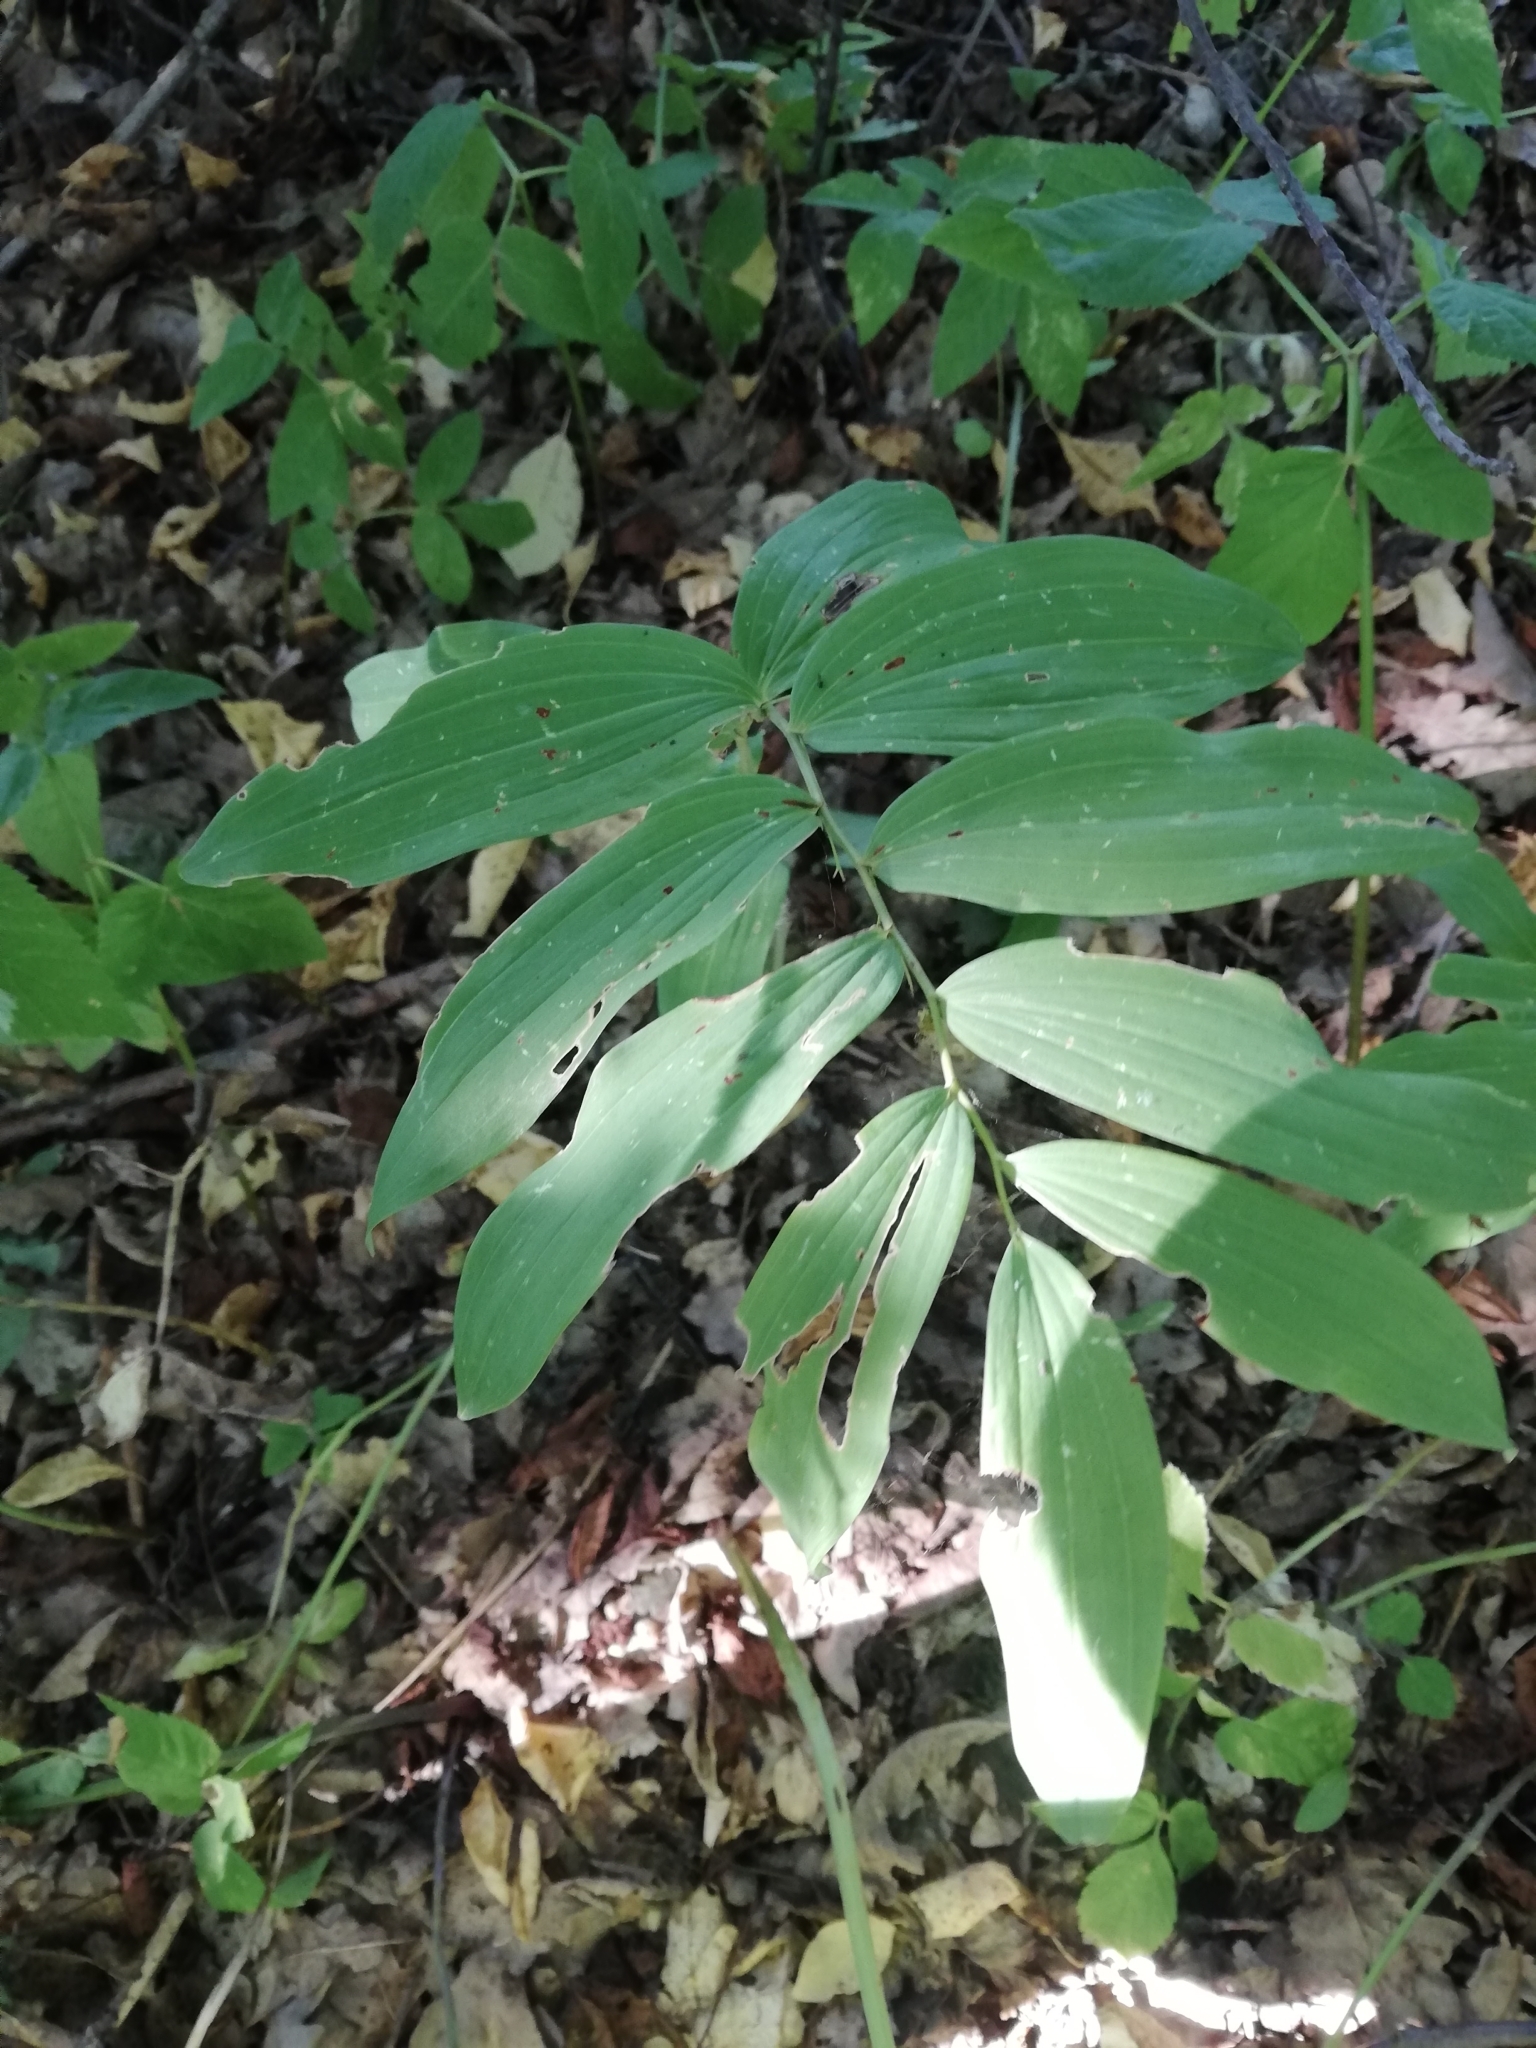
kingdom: Plantae
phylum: Tracheophyta
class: Liliopsida
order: Asparagales
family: Asparagaceae
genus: Polygonatum
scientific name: Polygonatum multiflorum
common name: Solomon's-seal
